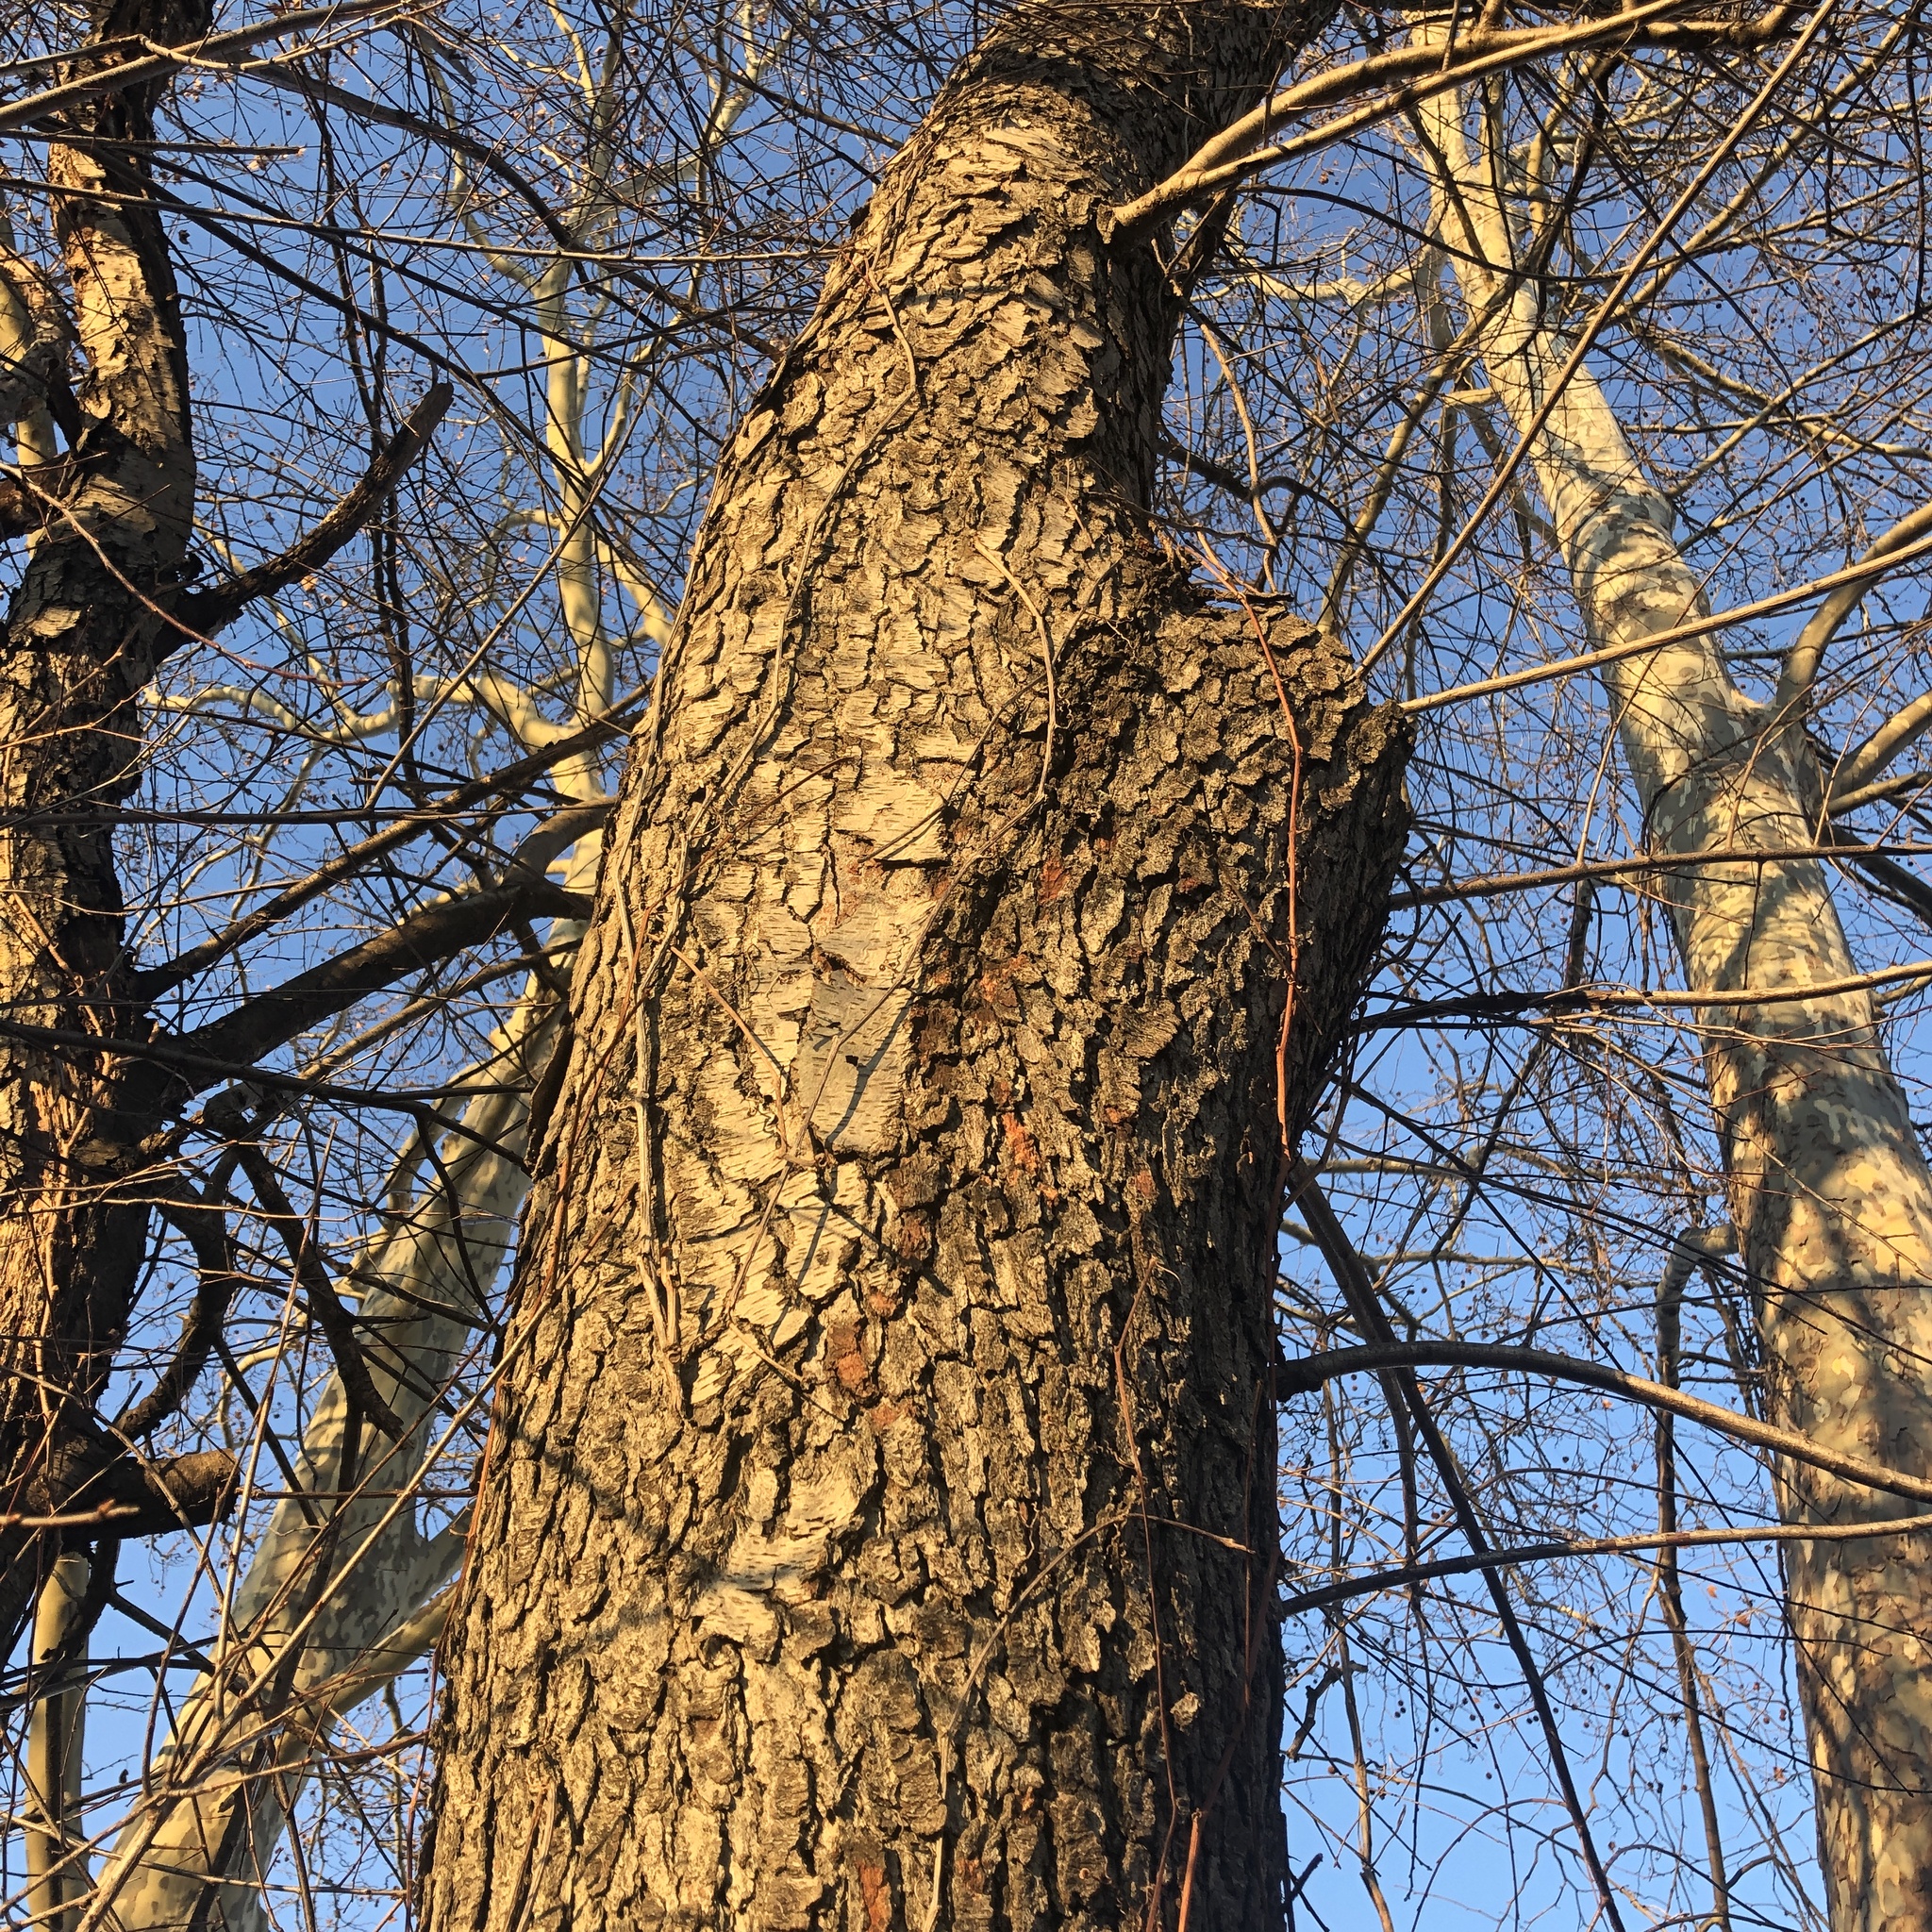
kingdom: Plantae
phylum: Tracheophyta
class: Magnoliopsida
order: Rosales
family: Rosaceae
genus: Prunus
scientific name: Prunus serotina
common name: Black cherry
